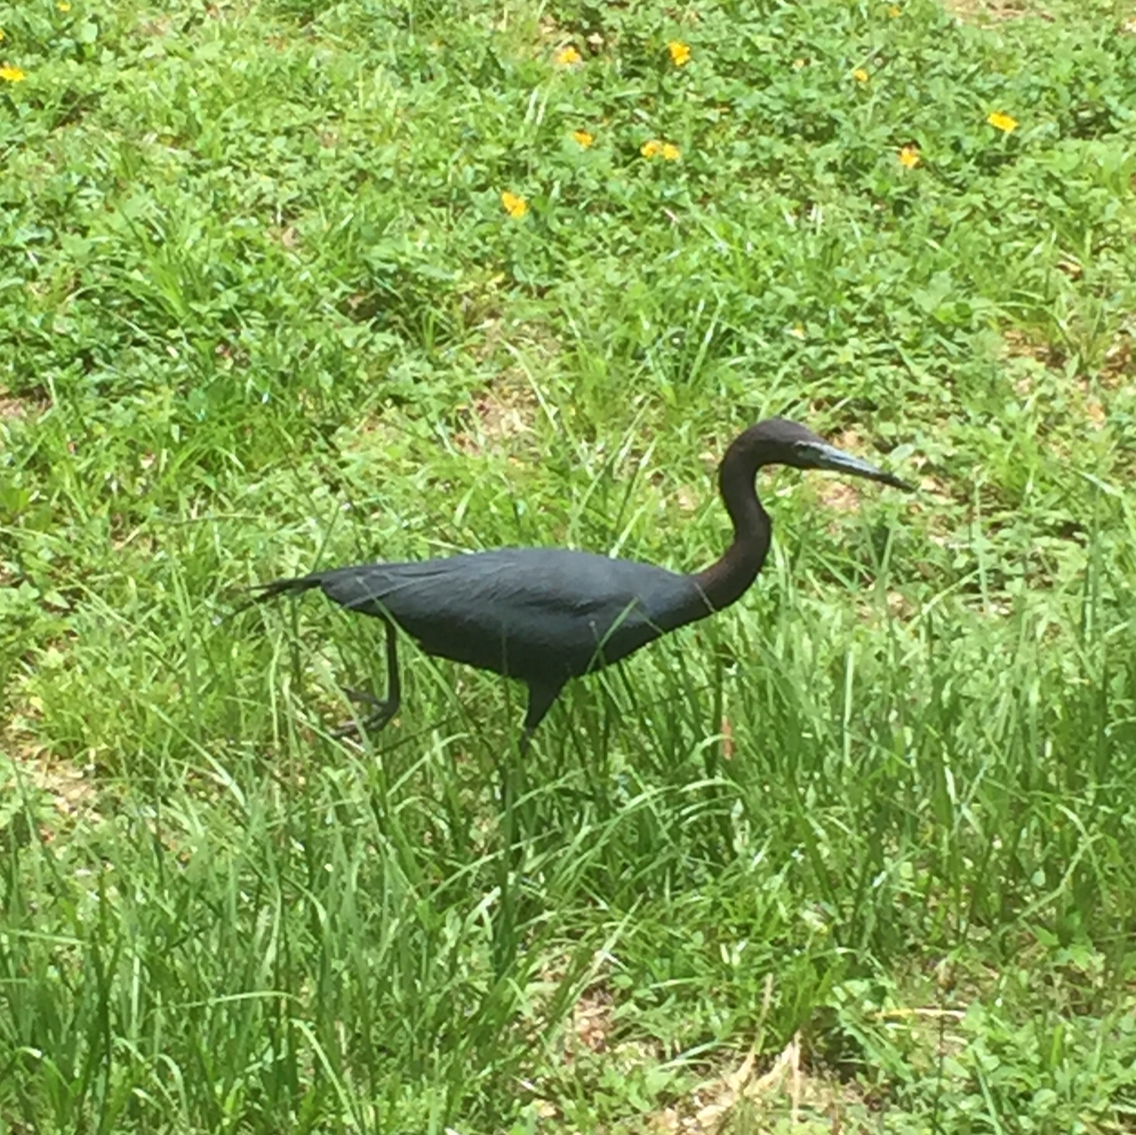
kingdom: Animalia
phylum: Chordata
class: Aves
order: Pelecaniformes
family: Ardeidae
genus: Egretta
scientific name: Egretta caerulea
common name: Little blue heron
